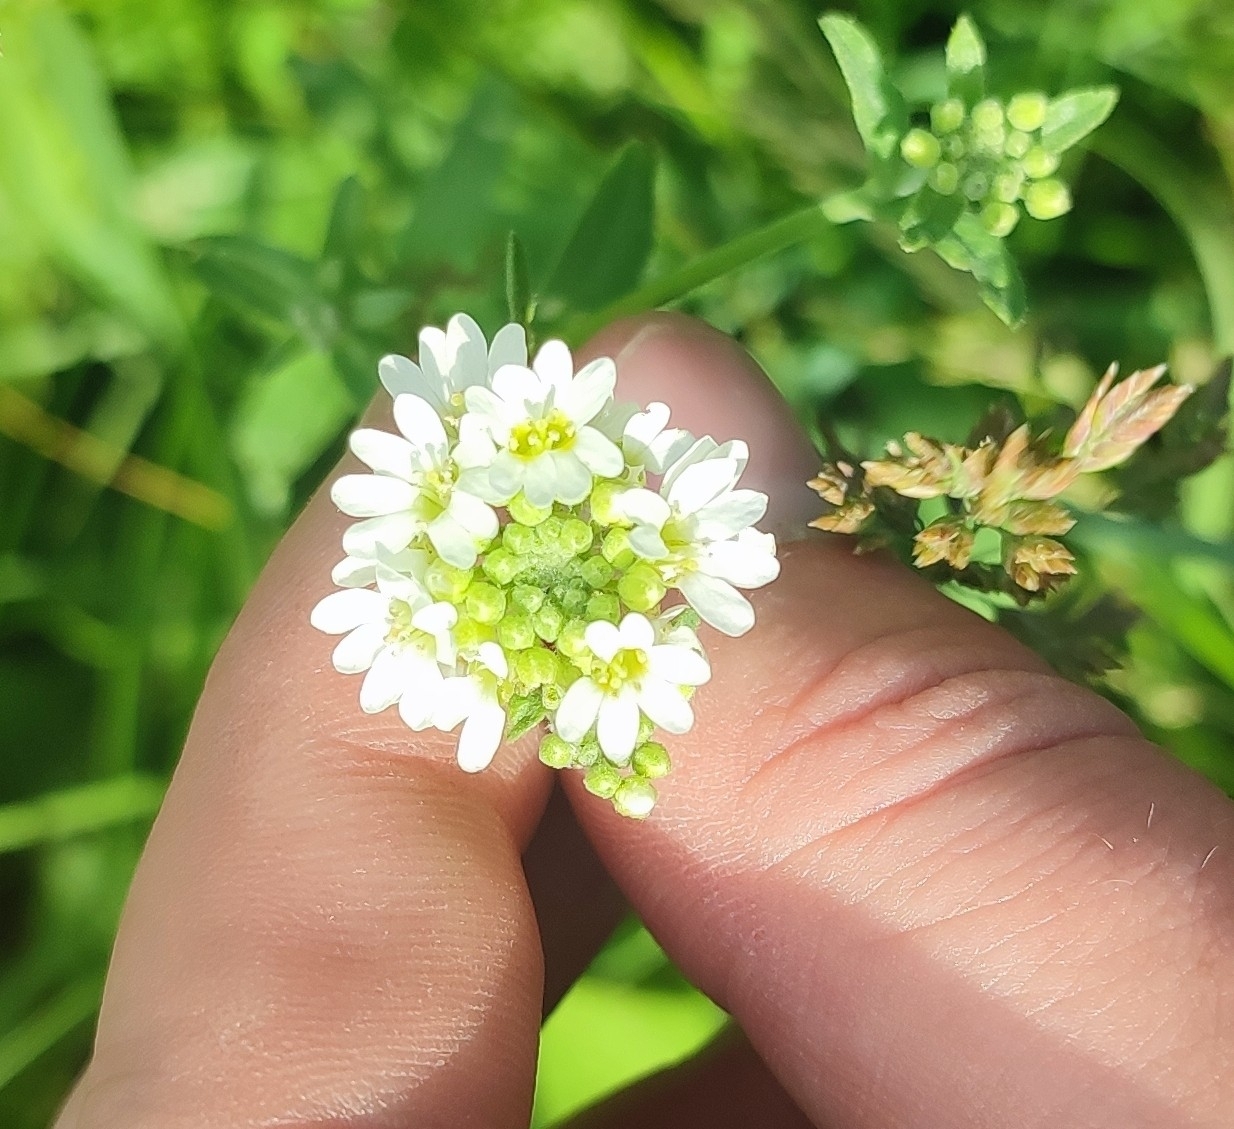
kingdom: Plantae
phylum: Tracheophyta
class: Magnoliopsida
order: Brassicales
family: Brassicaceae
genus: Berteroa
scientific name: Berteroa incana
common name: Hoary alison
